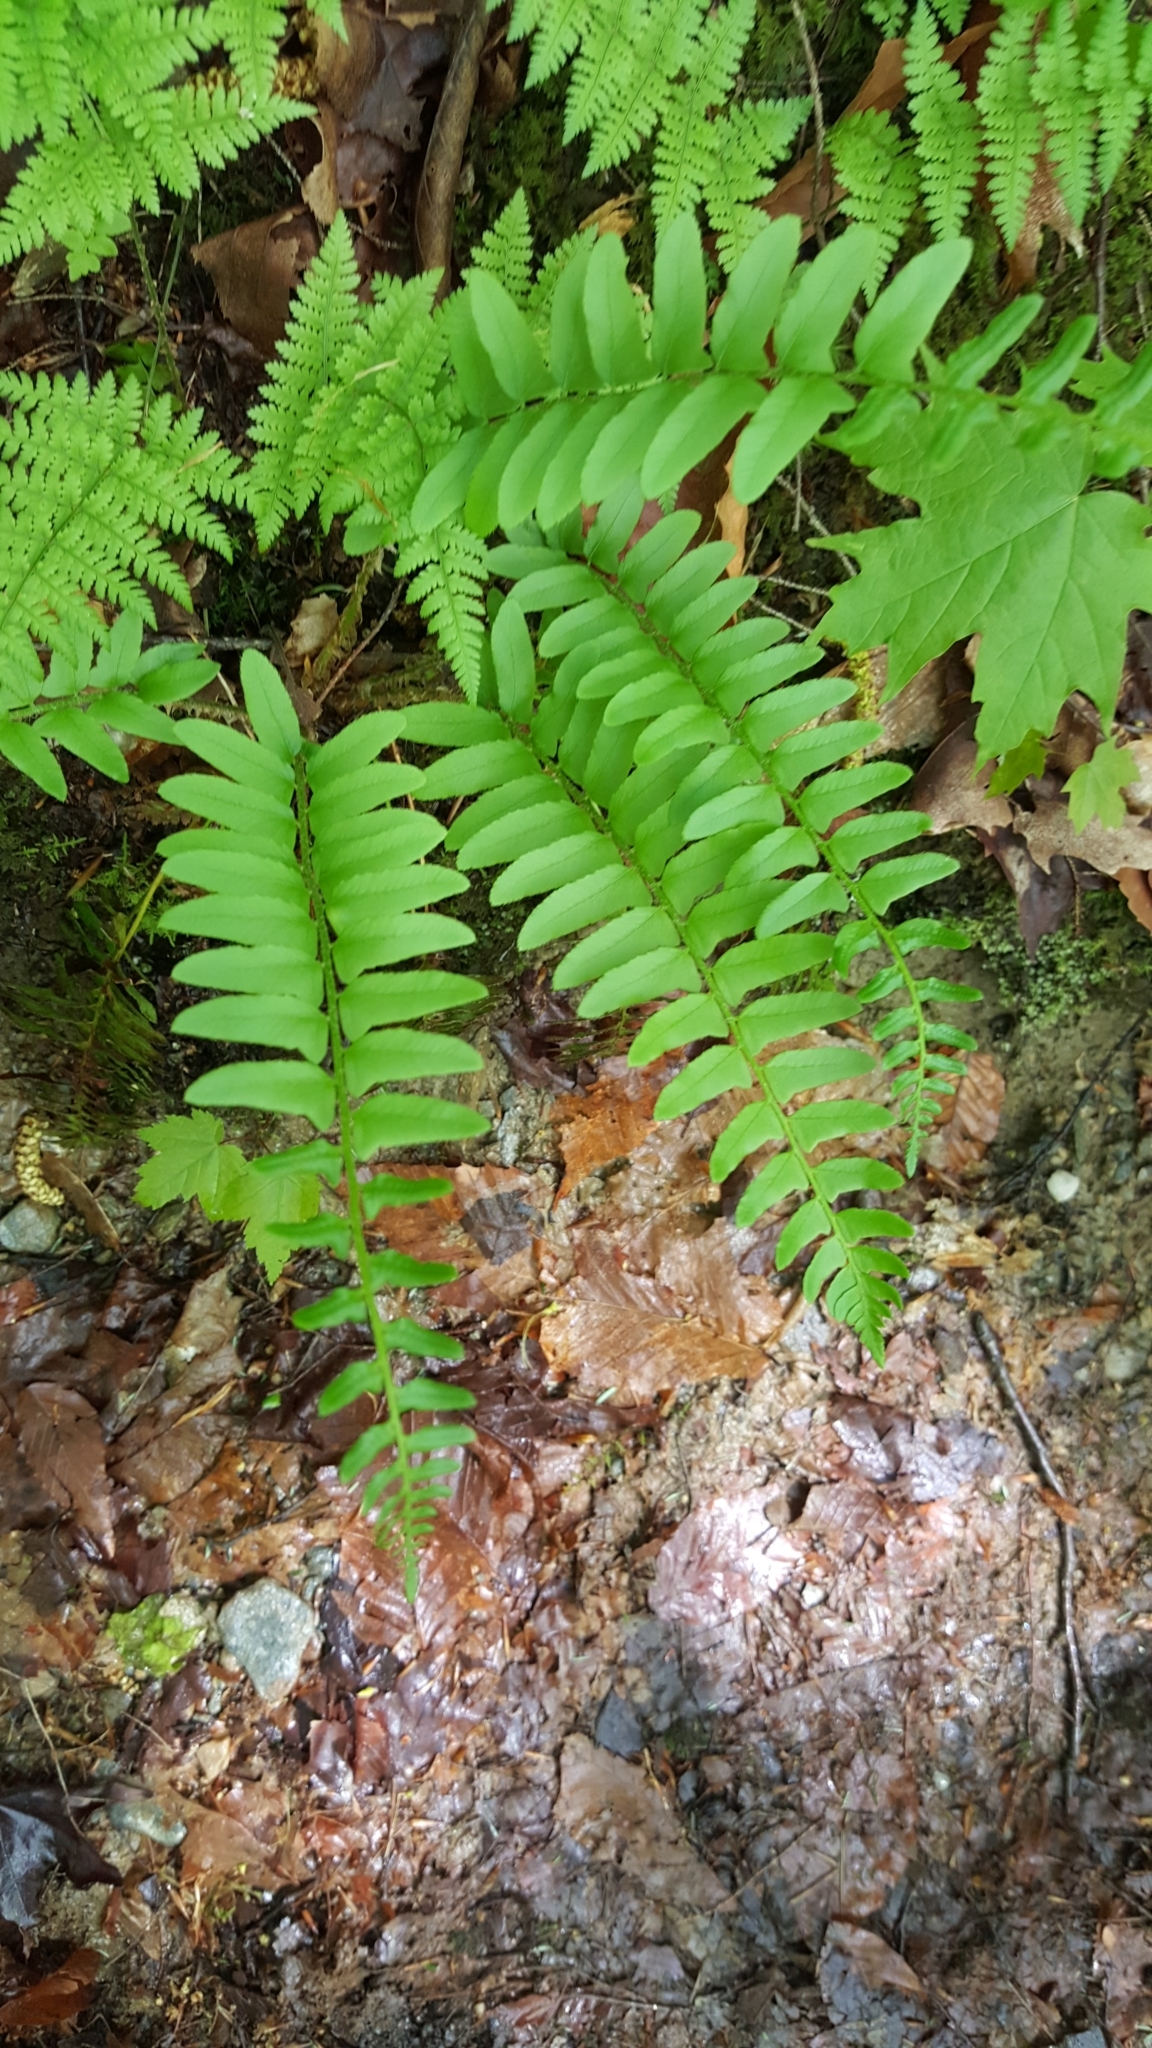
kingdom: Plantae
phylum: Tracheophyta
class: Polypodiopsida
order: Polypodiales
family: Dryopteridaceae
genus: Polystichum
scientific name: Polystichum acrostichoides
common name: Christmas fern
